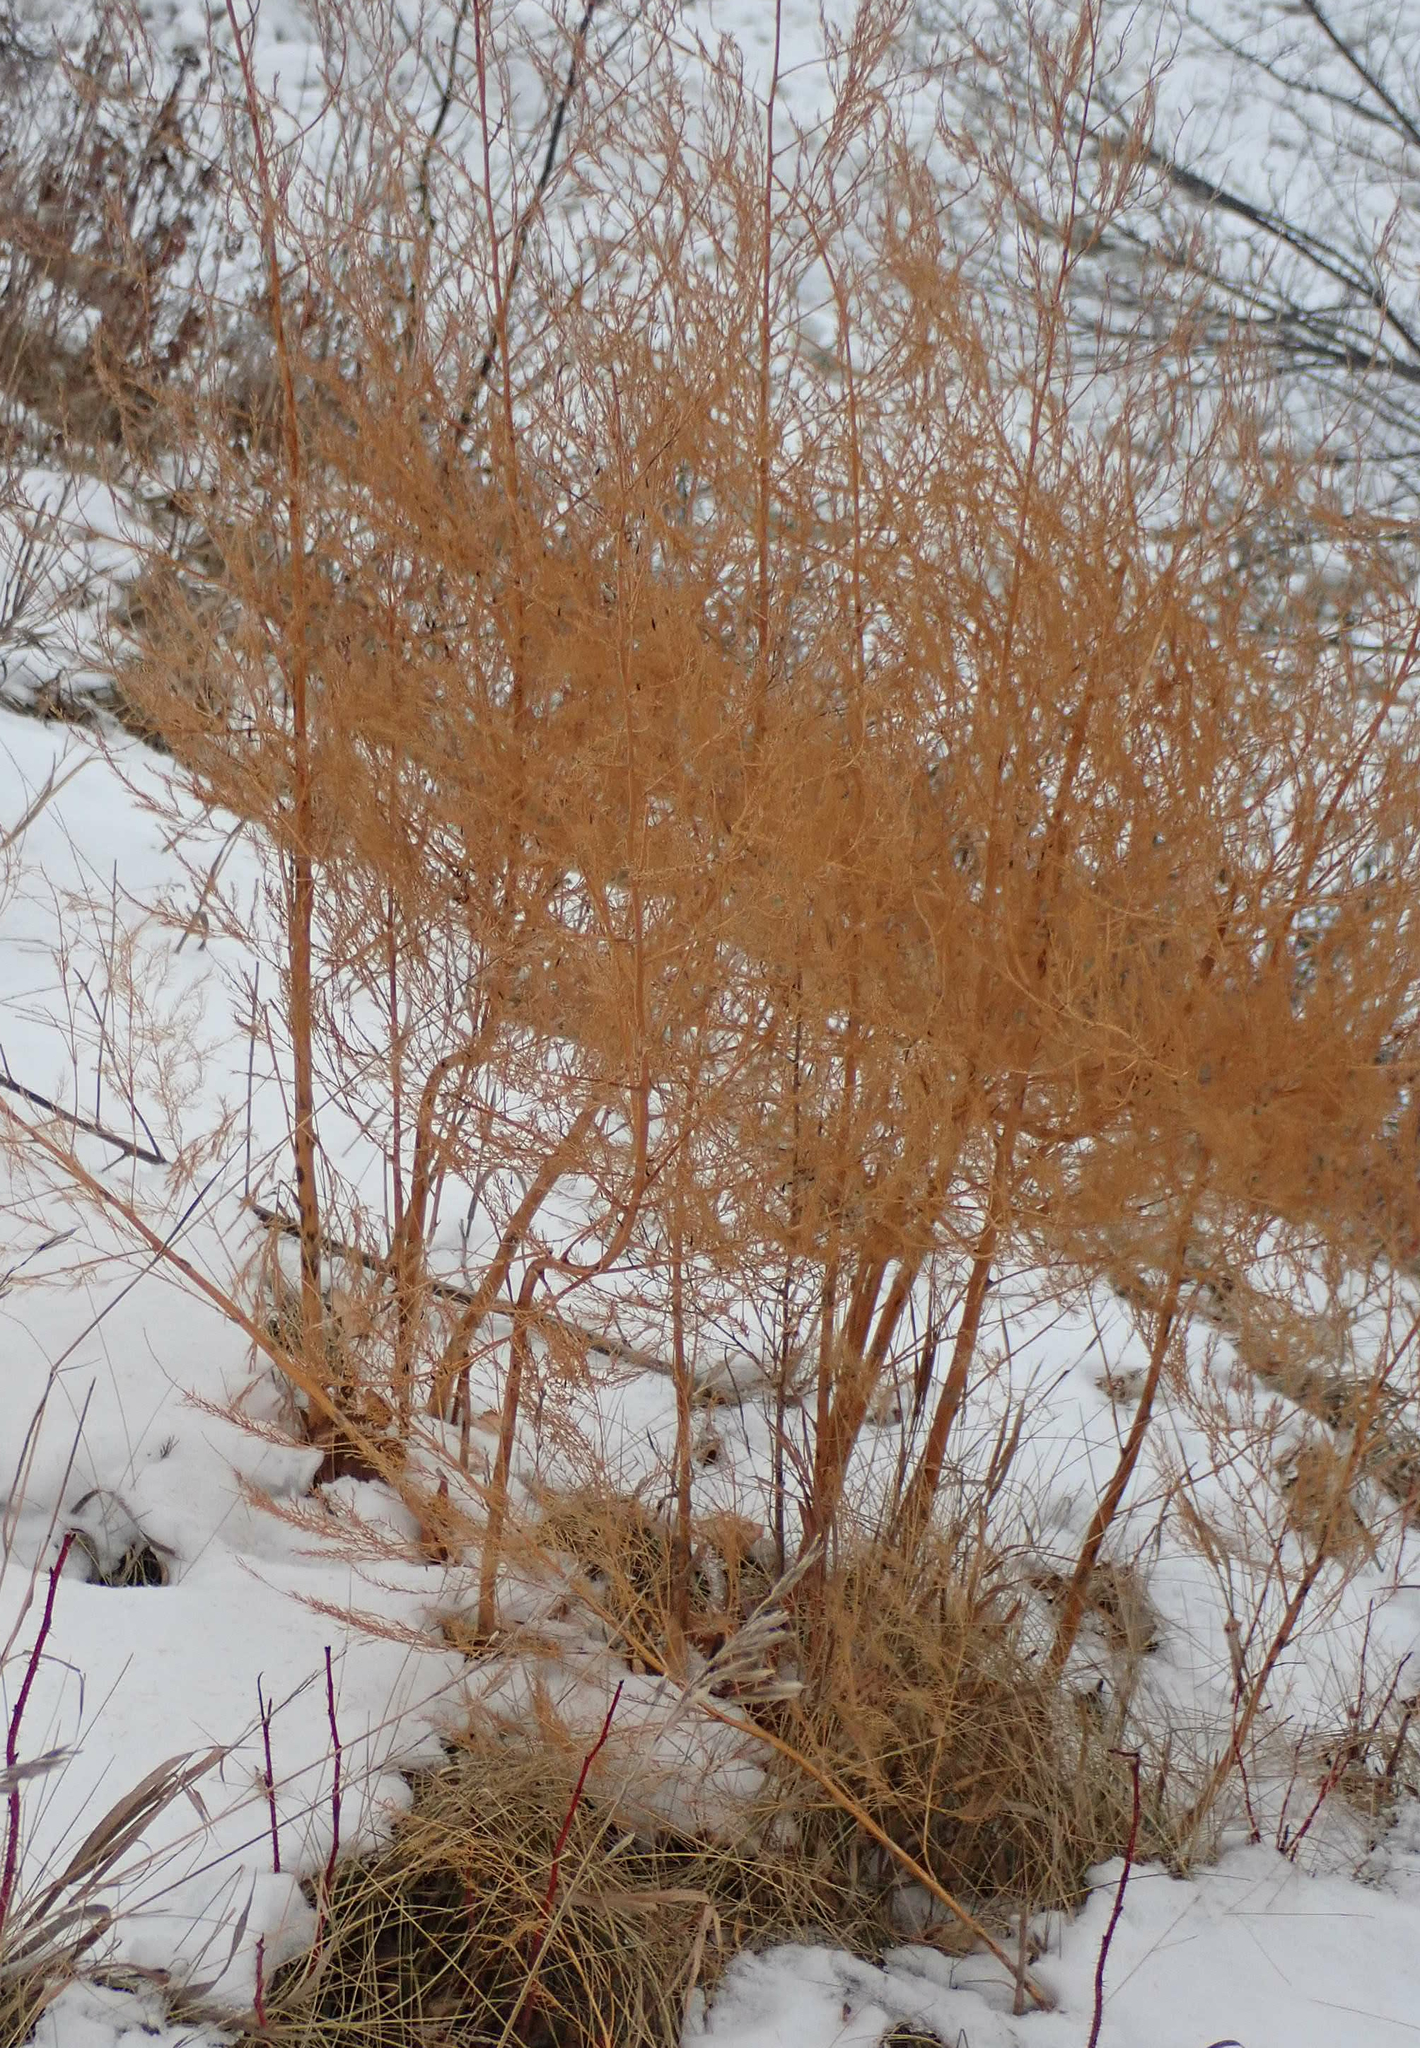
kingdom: Plantae
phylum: Tracheophyta
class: Liliopsida
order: Asparagales
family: Asparagaceae
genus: Asparagus
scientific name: Asparagus officinalis
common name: Garden asparagus
